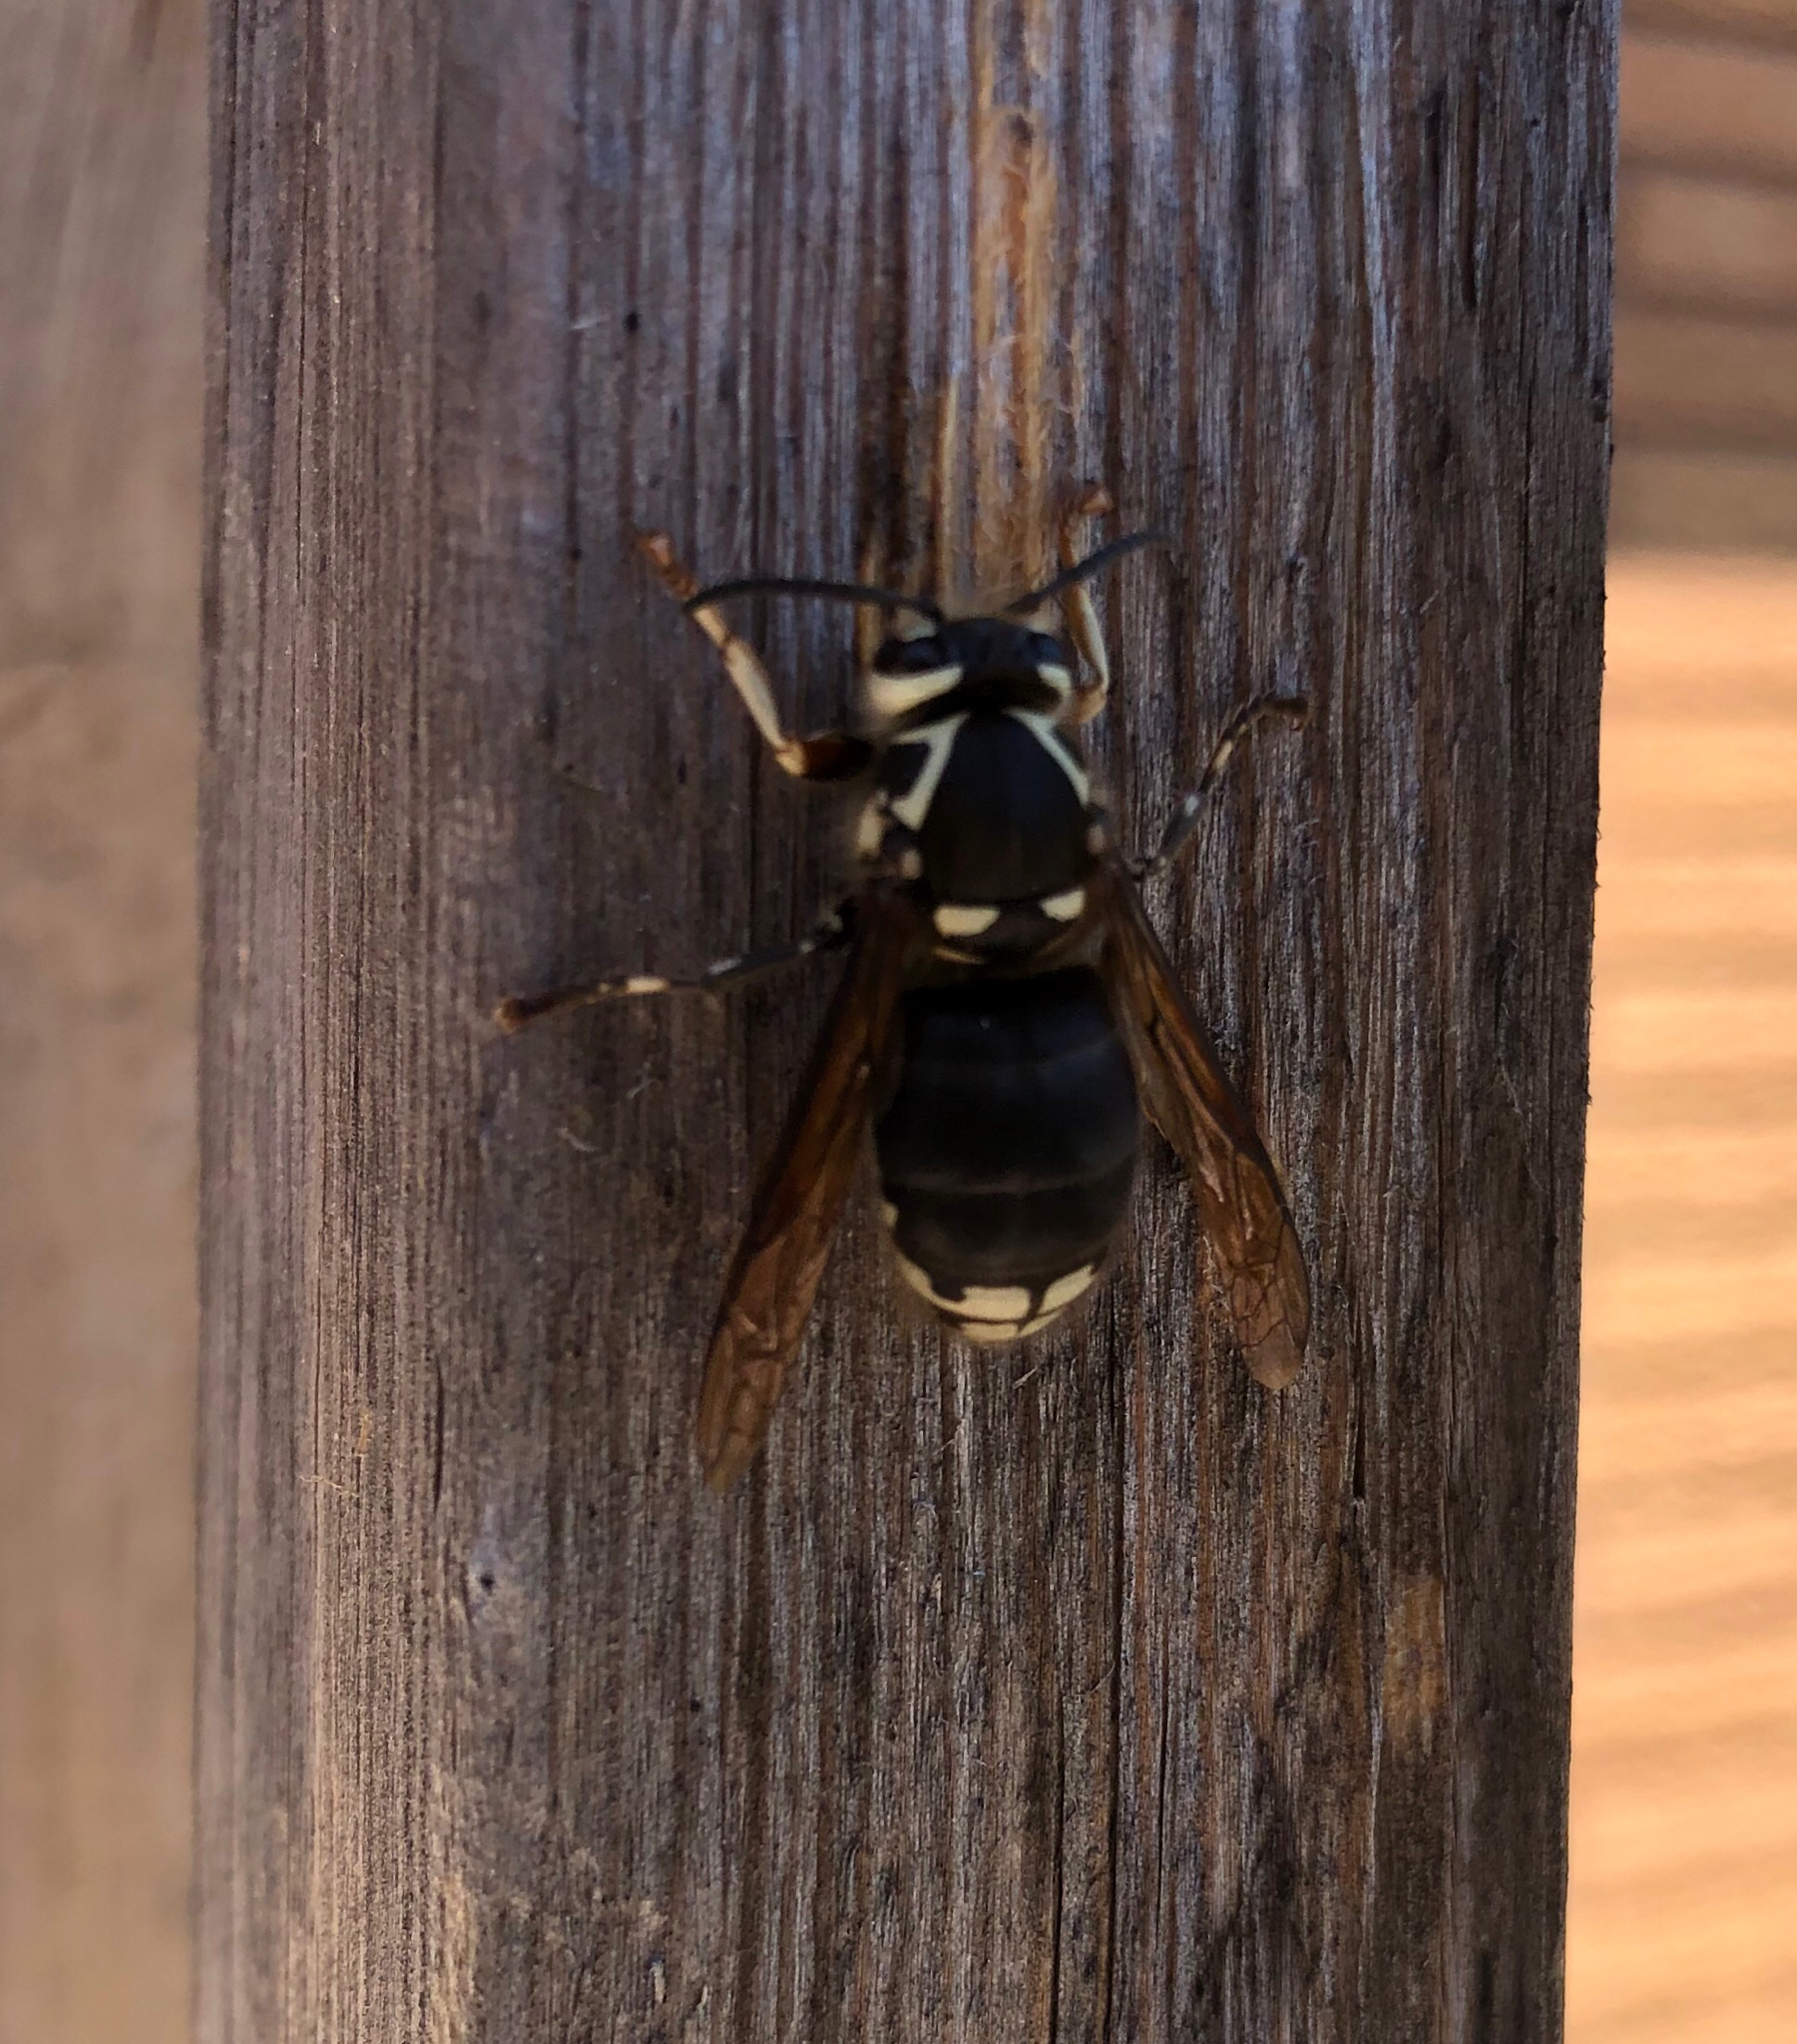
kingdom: Animalia
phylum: Arthropoda
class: Insecta
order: Hymenoptera
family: Vespidae
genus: Dolichovespula
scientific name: Dolichovespula maculata
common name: Bald-faced hornet
